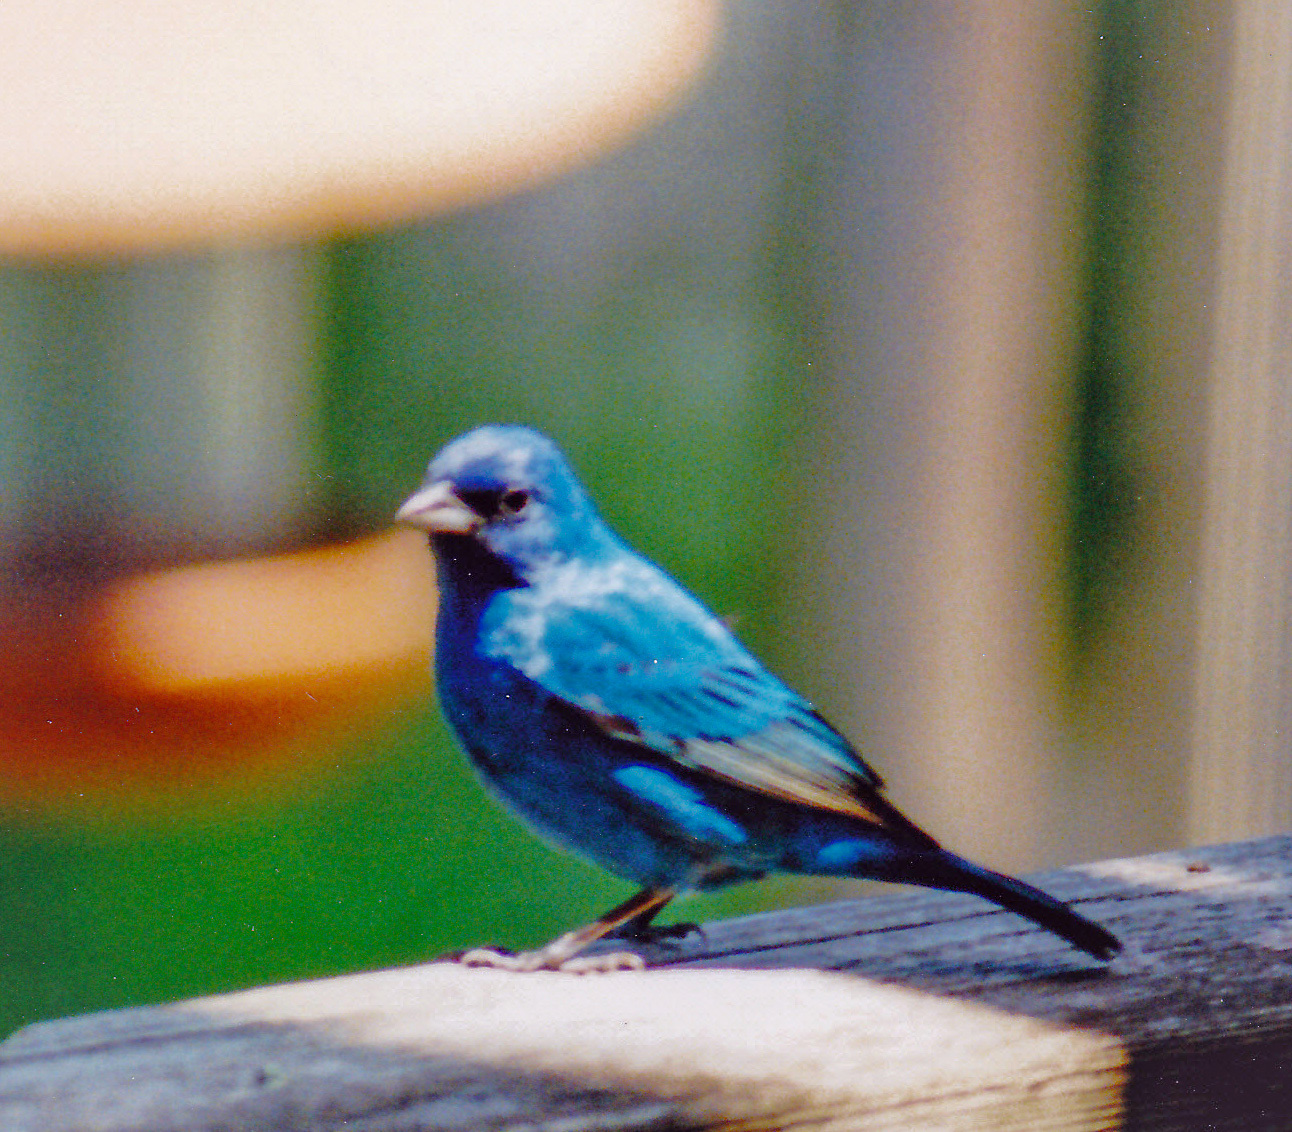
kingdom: Animalia
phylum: Chordata
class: Aves
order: Passeriformes
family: Cardinalidae
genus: Passerina
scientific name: Passerina cyanea
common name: Indigo bunting
